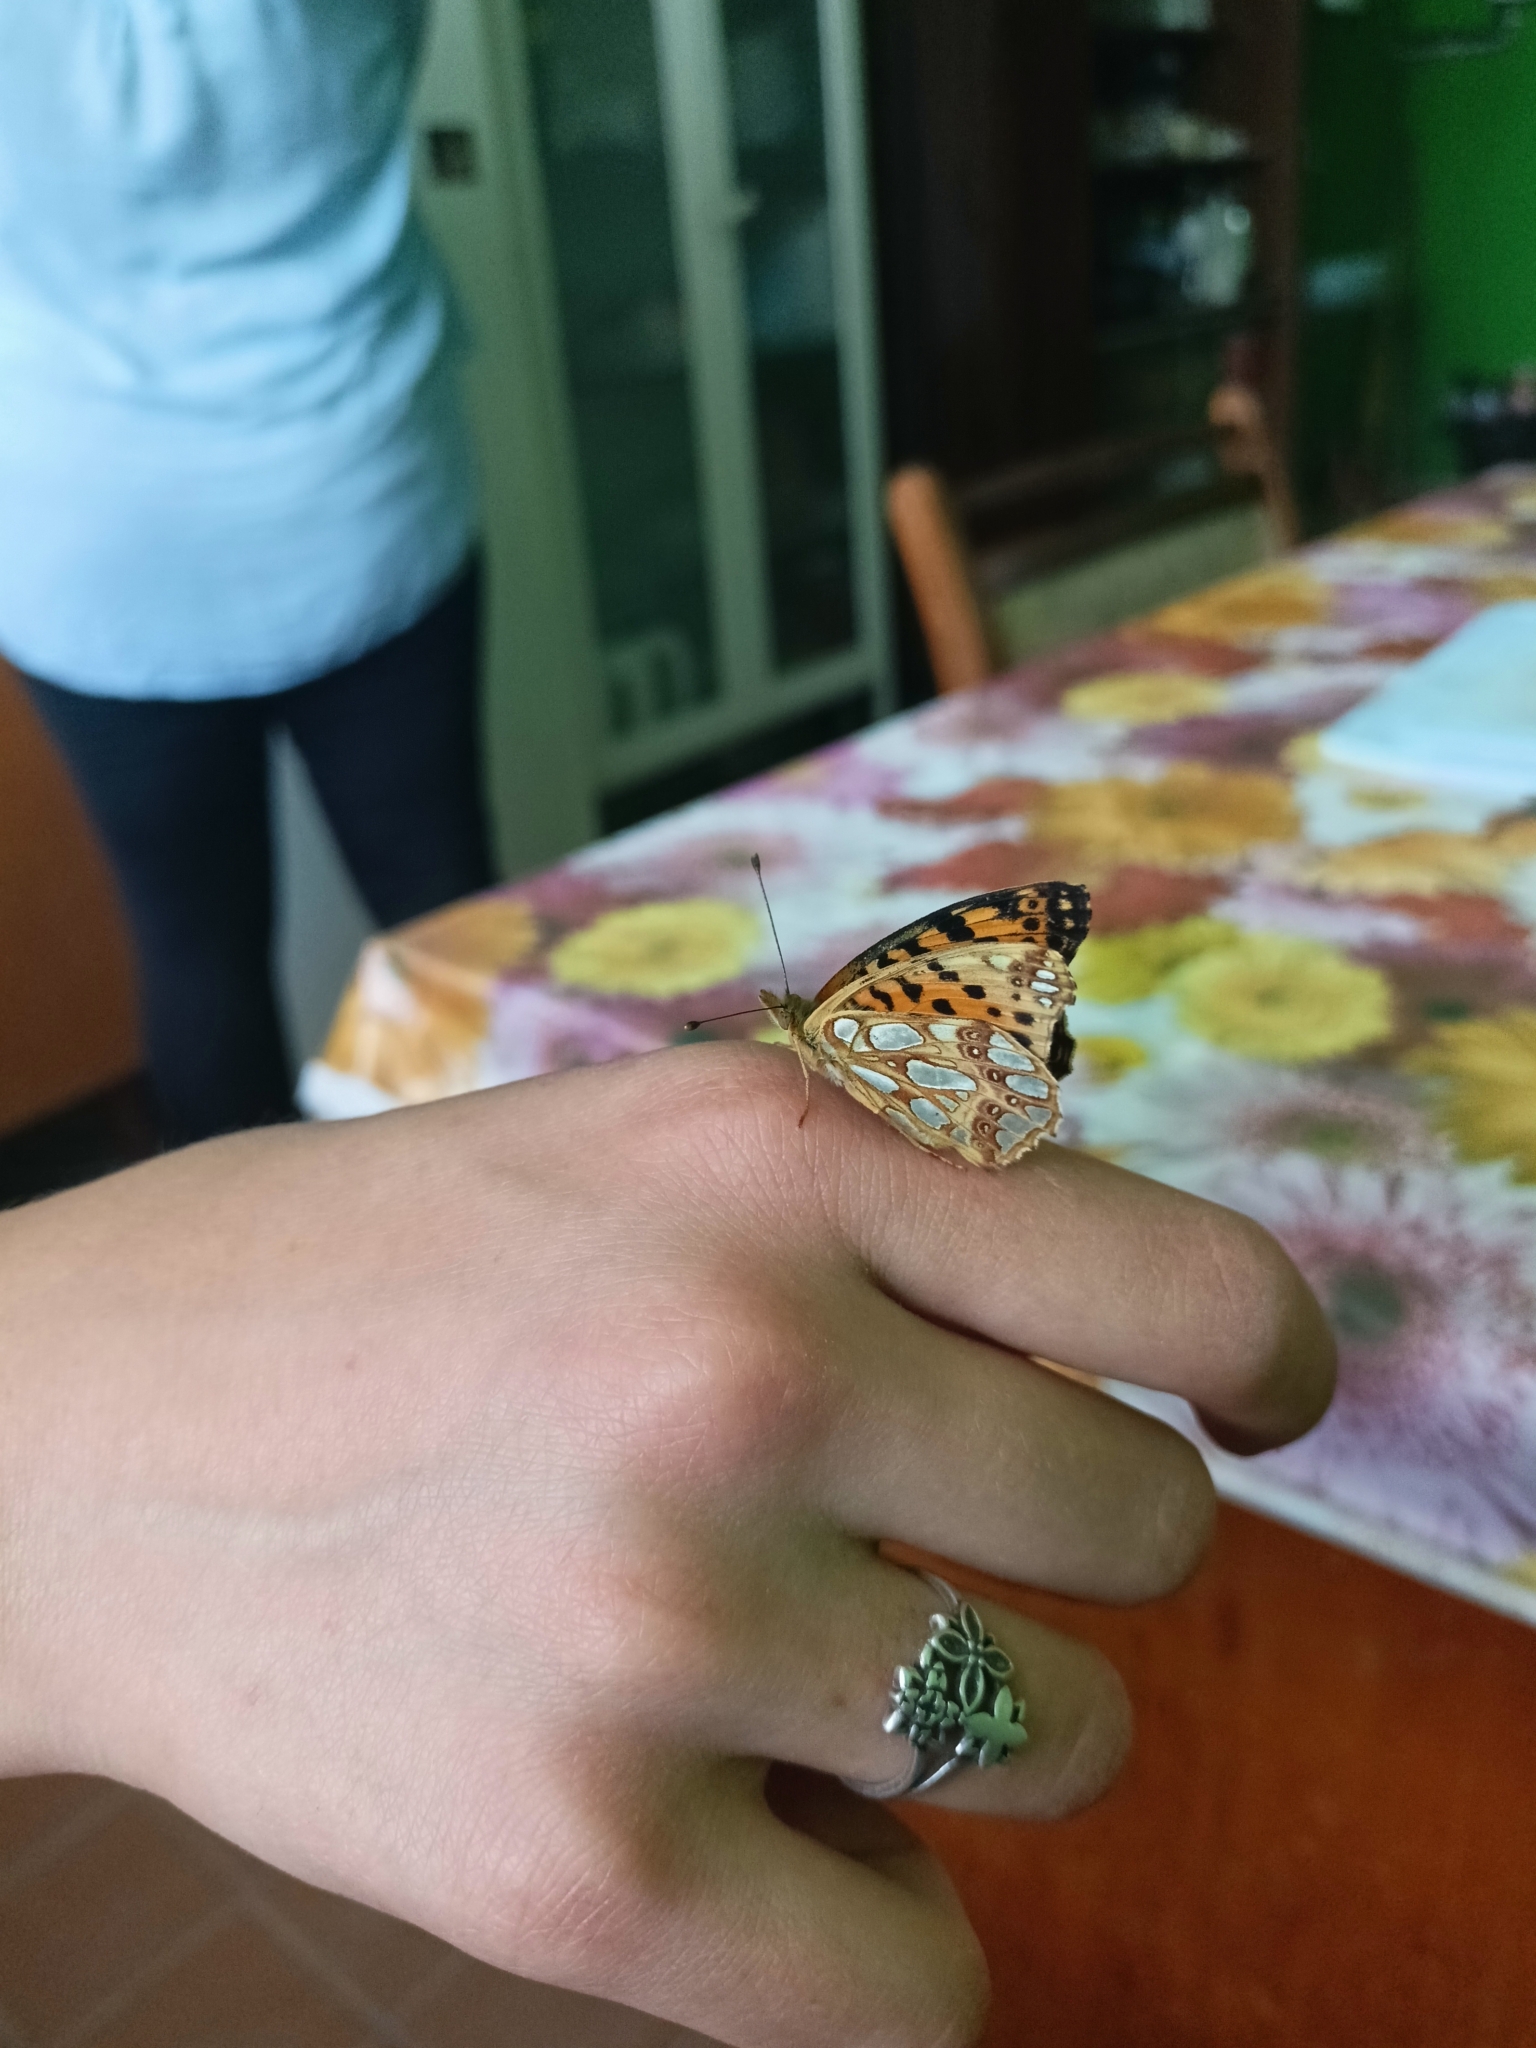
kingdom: Animalia
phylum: Arthropoda
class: Insecta
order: Lepidoptera
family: Nymphalidae
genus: Issoria
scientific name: Issoria lathonia
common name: Queen of spain fritillary
